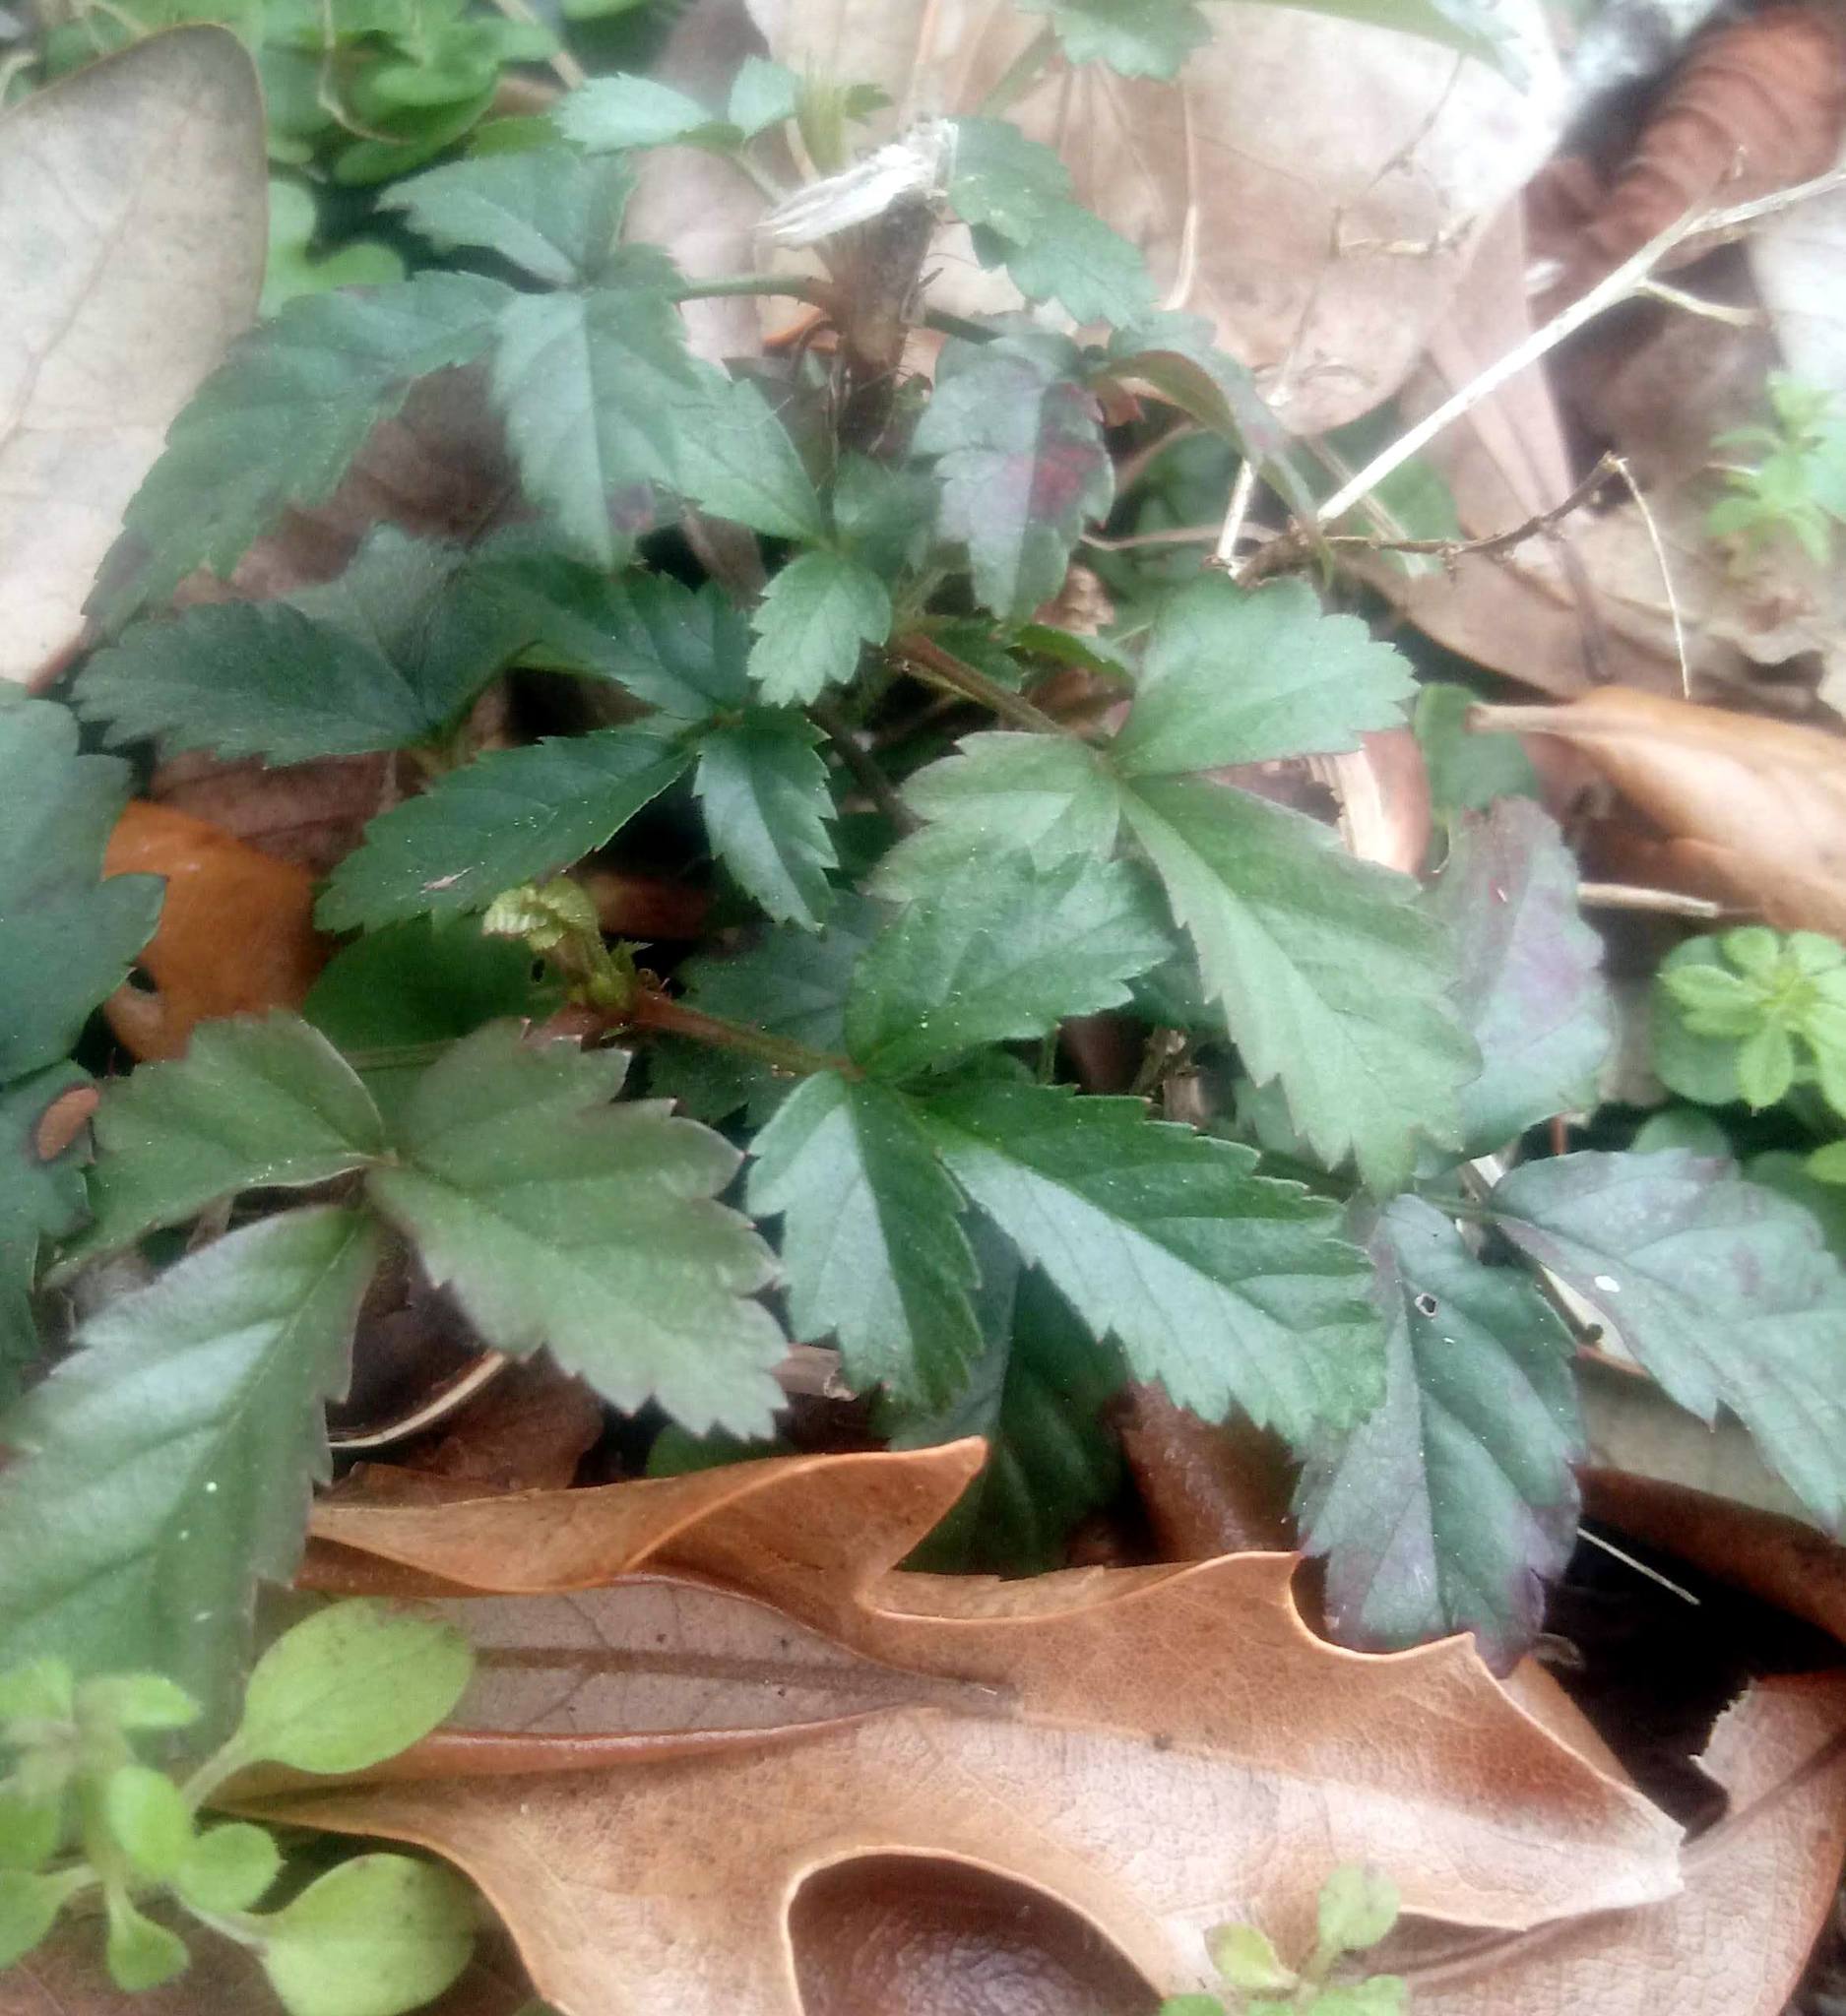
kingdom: Plantae
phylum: Tracheophyta
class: Magnoliopsida
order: Rosales
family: Rosaceae
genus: Rubus
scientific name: Rubus trivialis
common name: Southern dewberry
